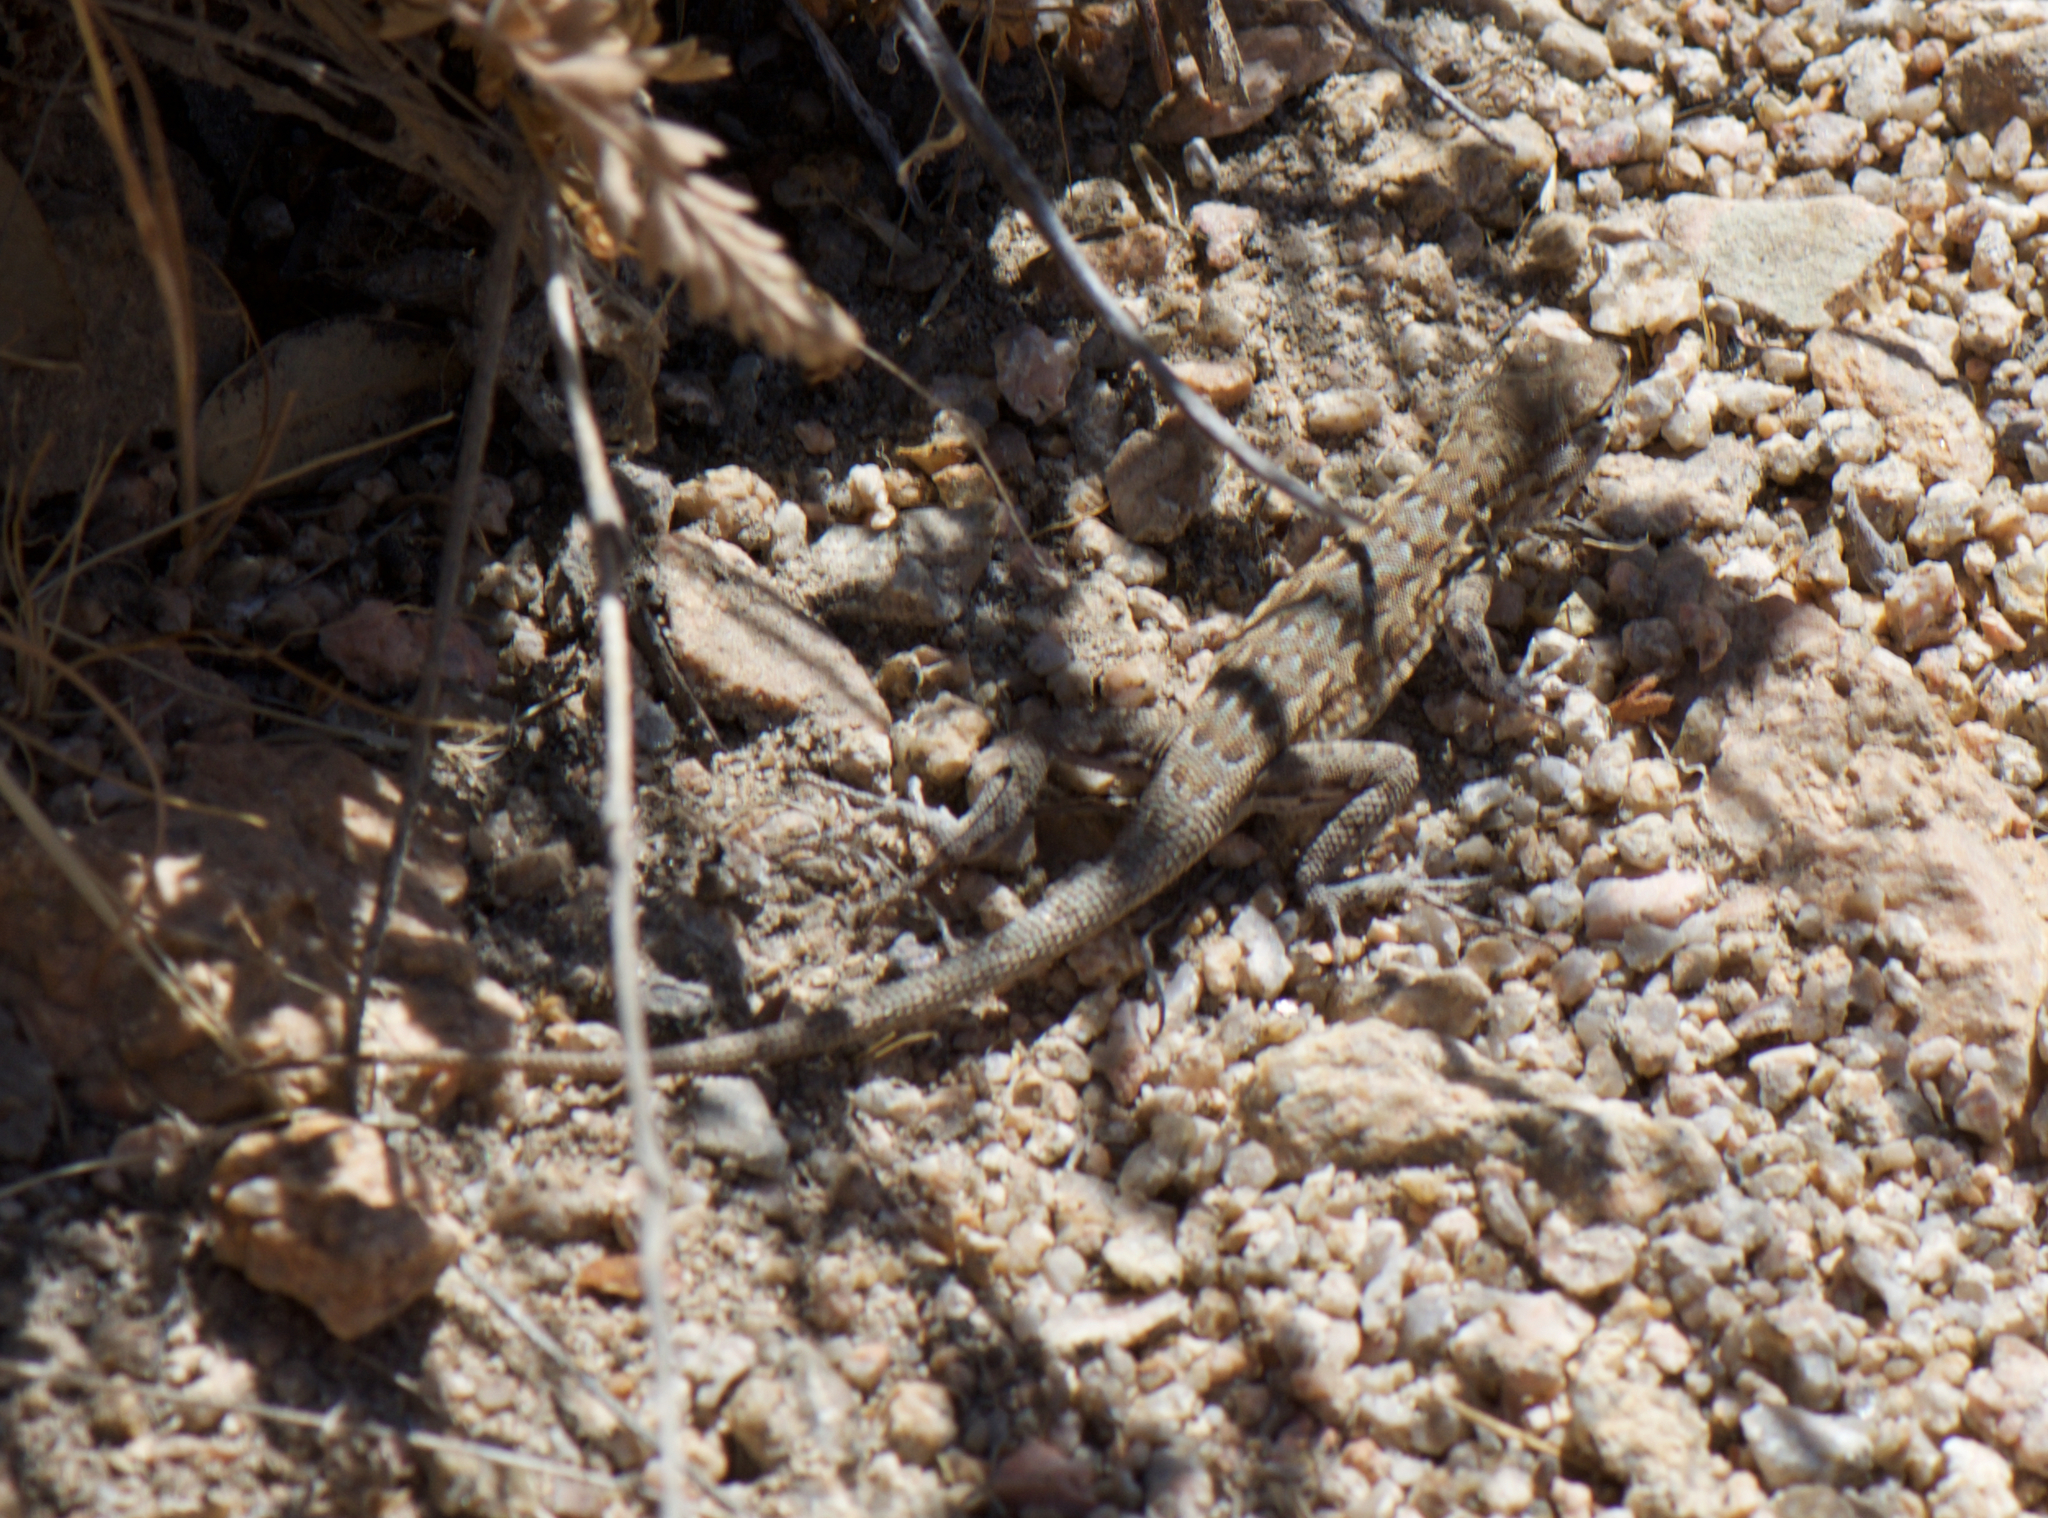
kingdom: Animalia
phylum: Chordata
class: Squamata
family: Phrynosomatidae
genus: Uta
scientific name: Uta stansburiana
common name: Side-blotched lizard
